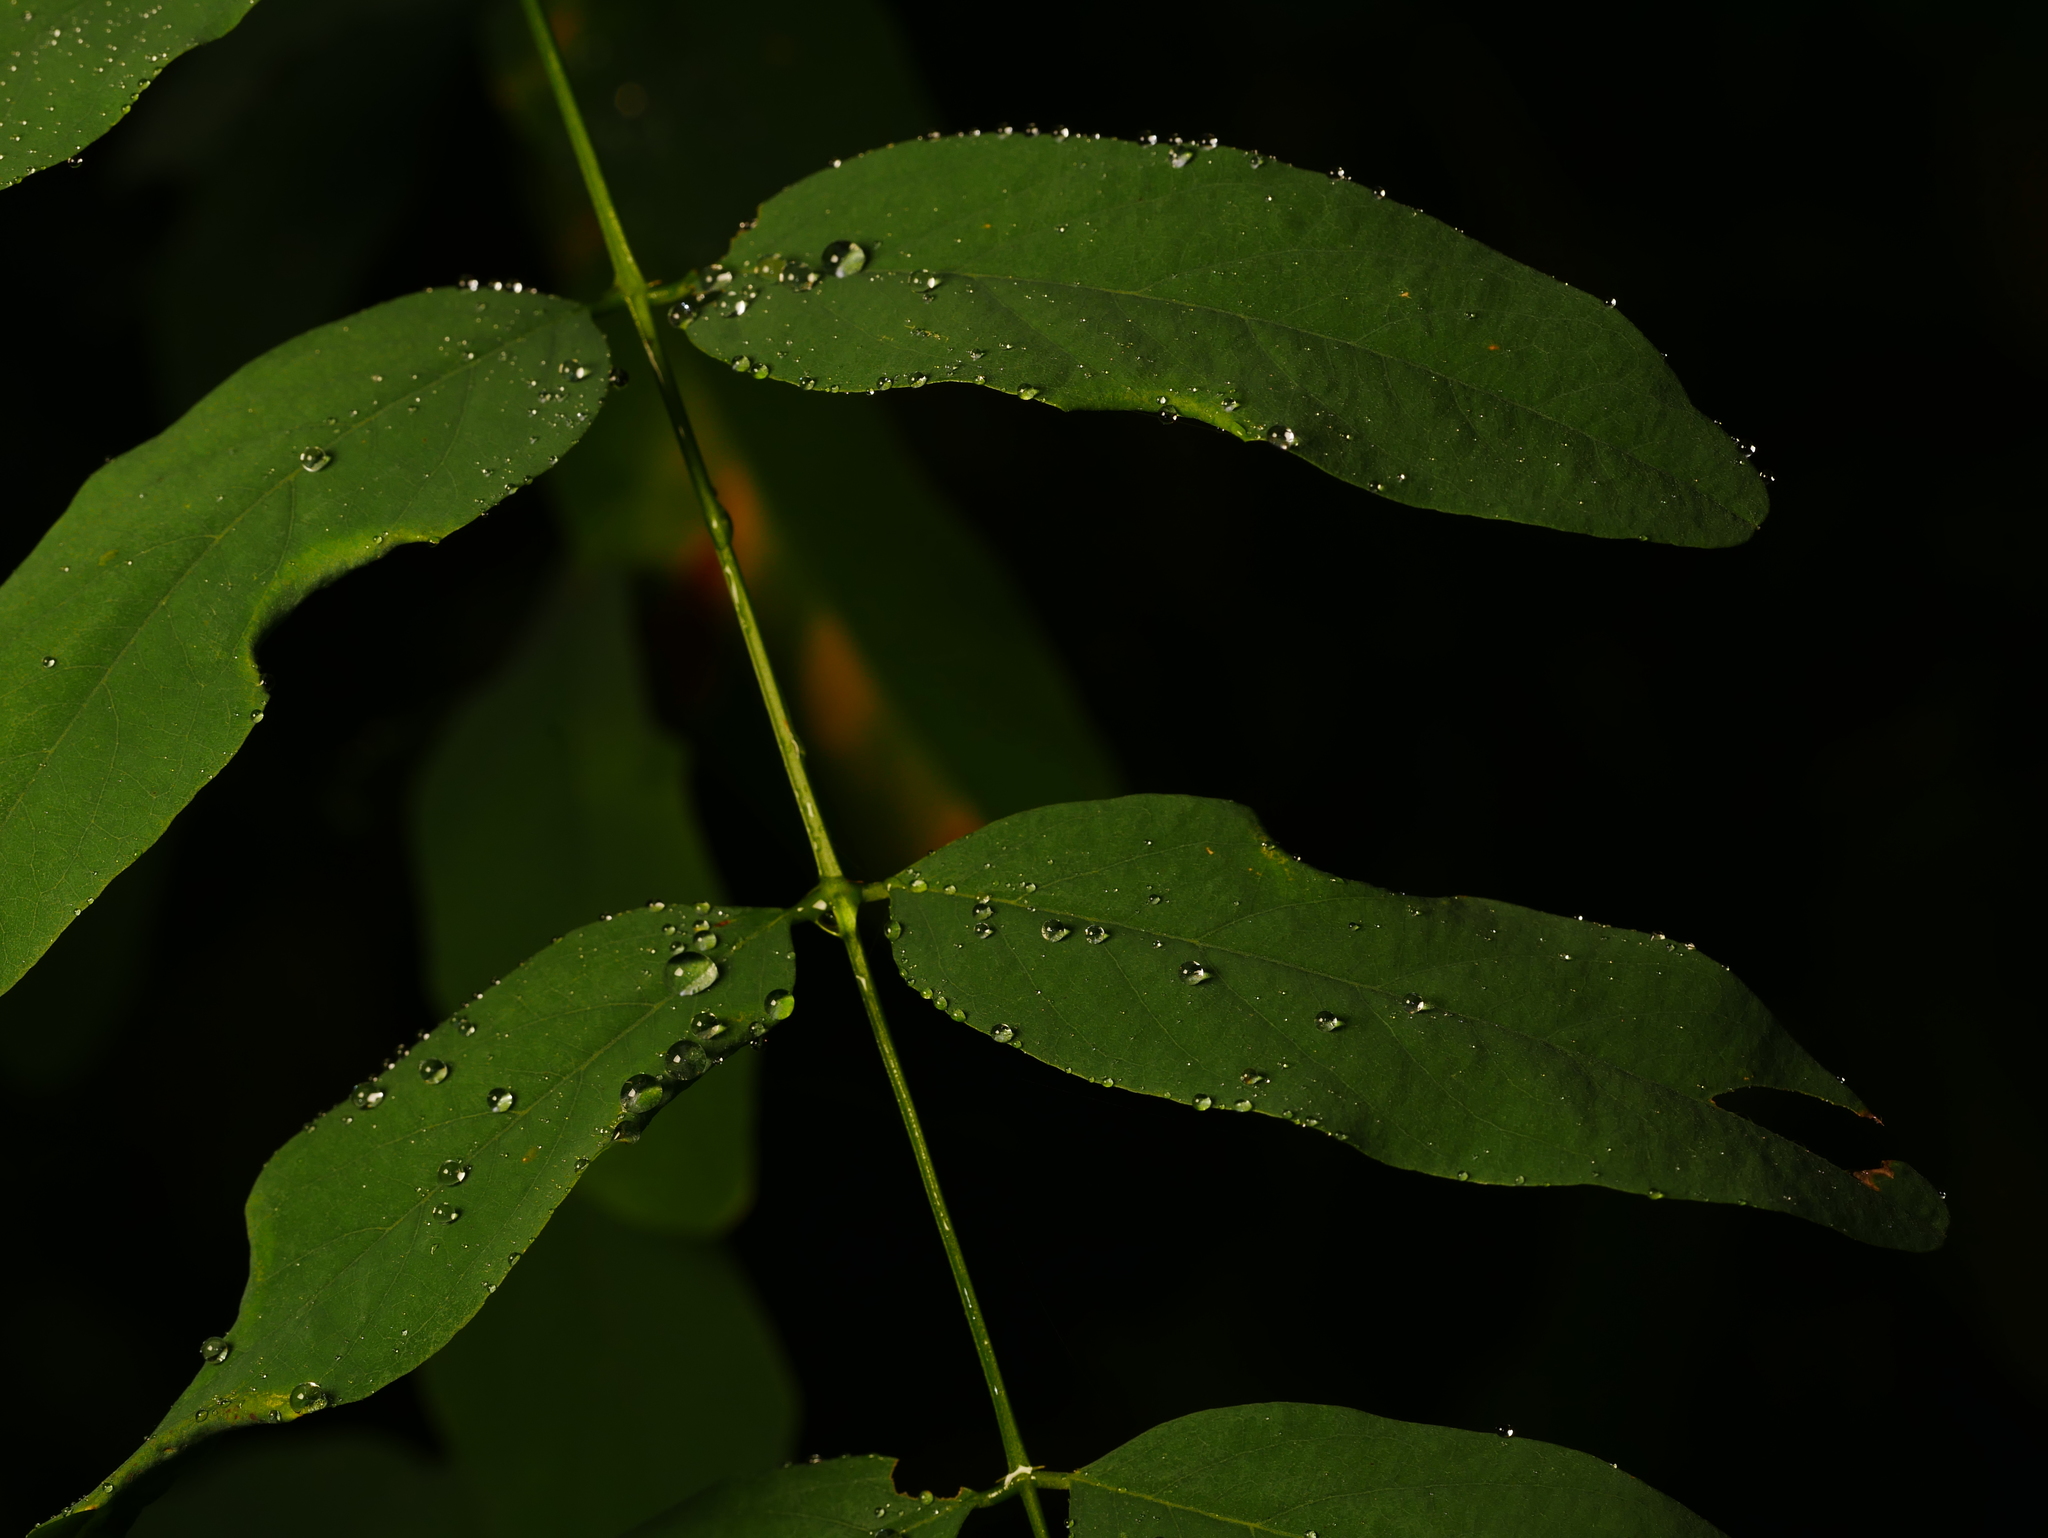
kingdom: Plantae
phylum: Tracheophyta
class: Magnoliopsida
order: Fabales
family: Fabaceae
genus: Robinia
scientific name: Robinia pseudoacacia
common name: Black locust
